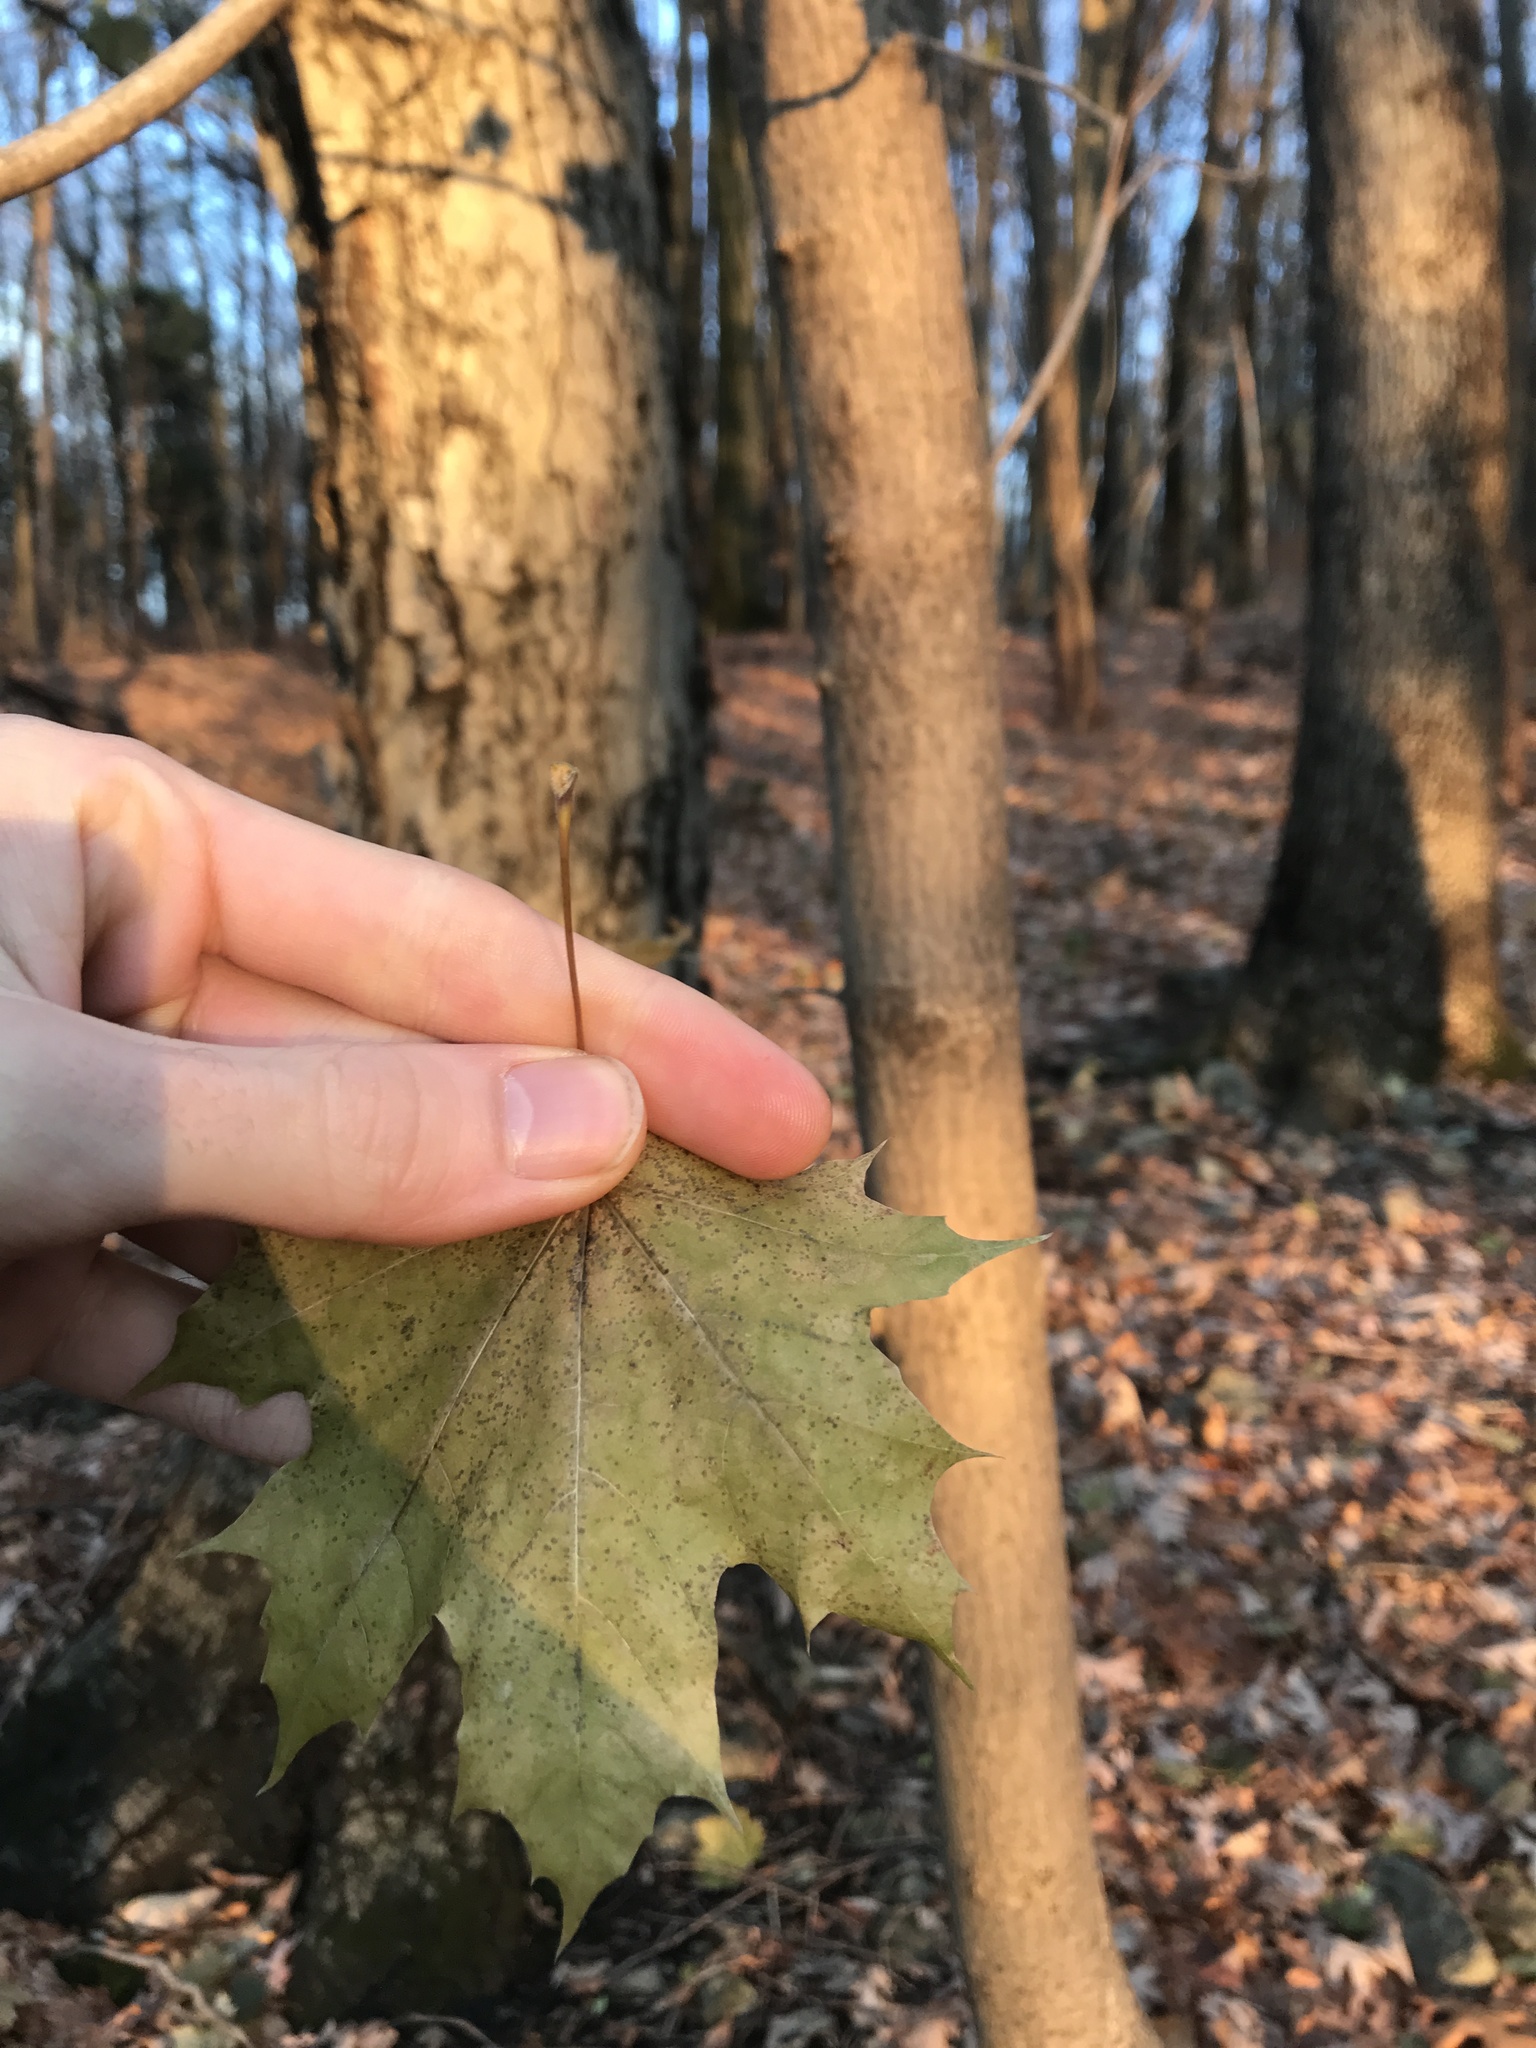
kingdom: Plantae
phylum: Tracheophyta
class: Magnoliopsida
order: Sapindales
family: Sapindaceae
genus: Acer
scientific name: Acer platanoides
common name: Norway maple
